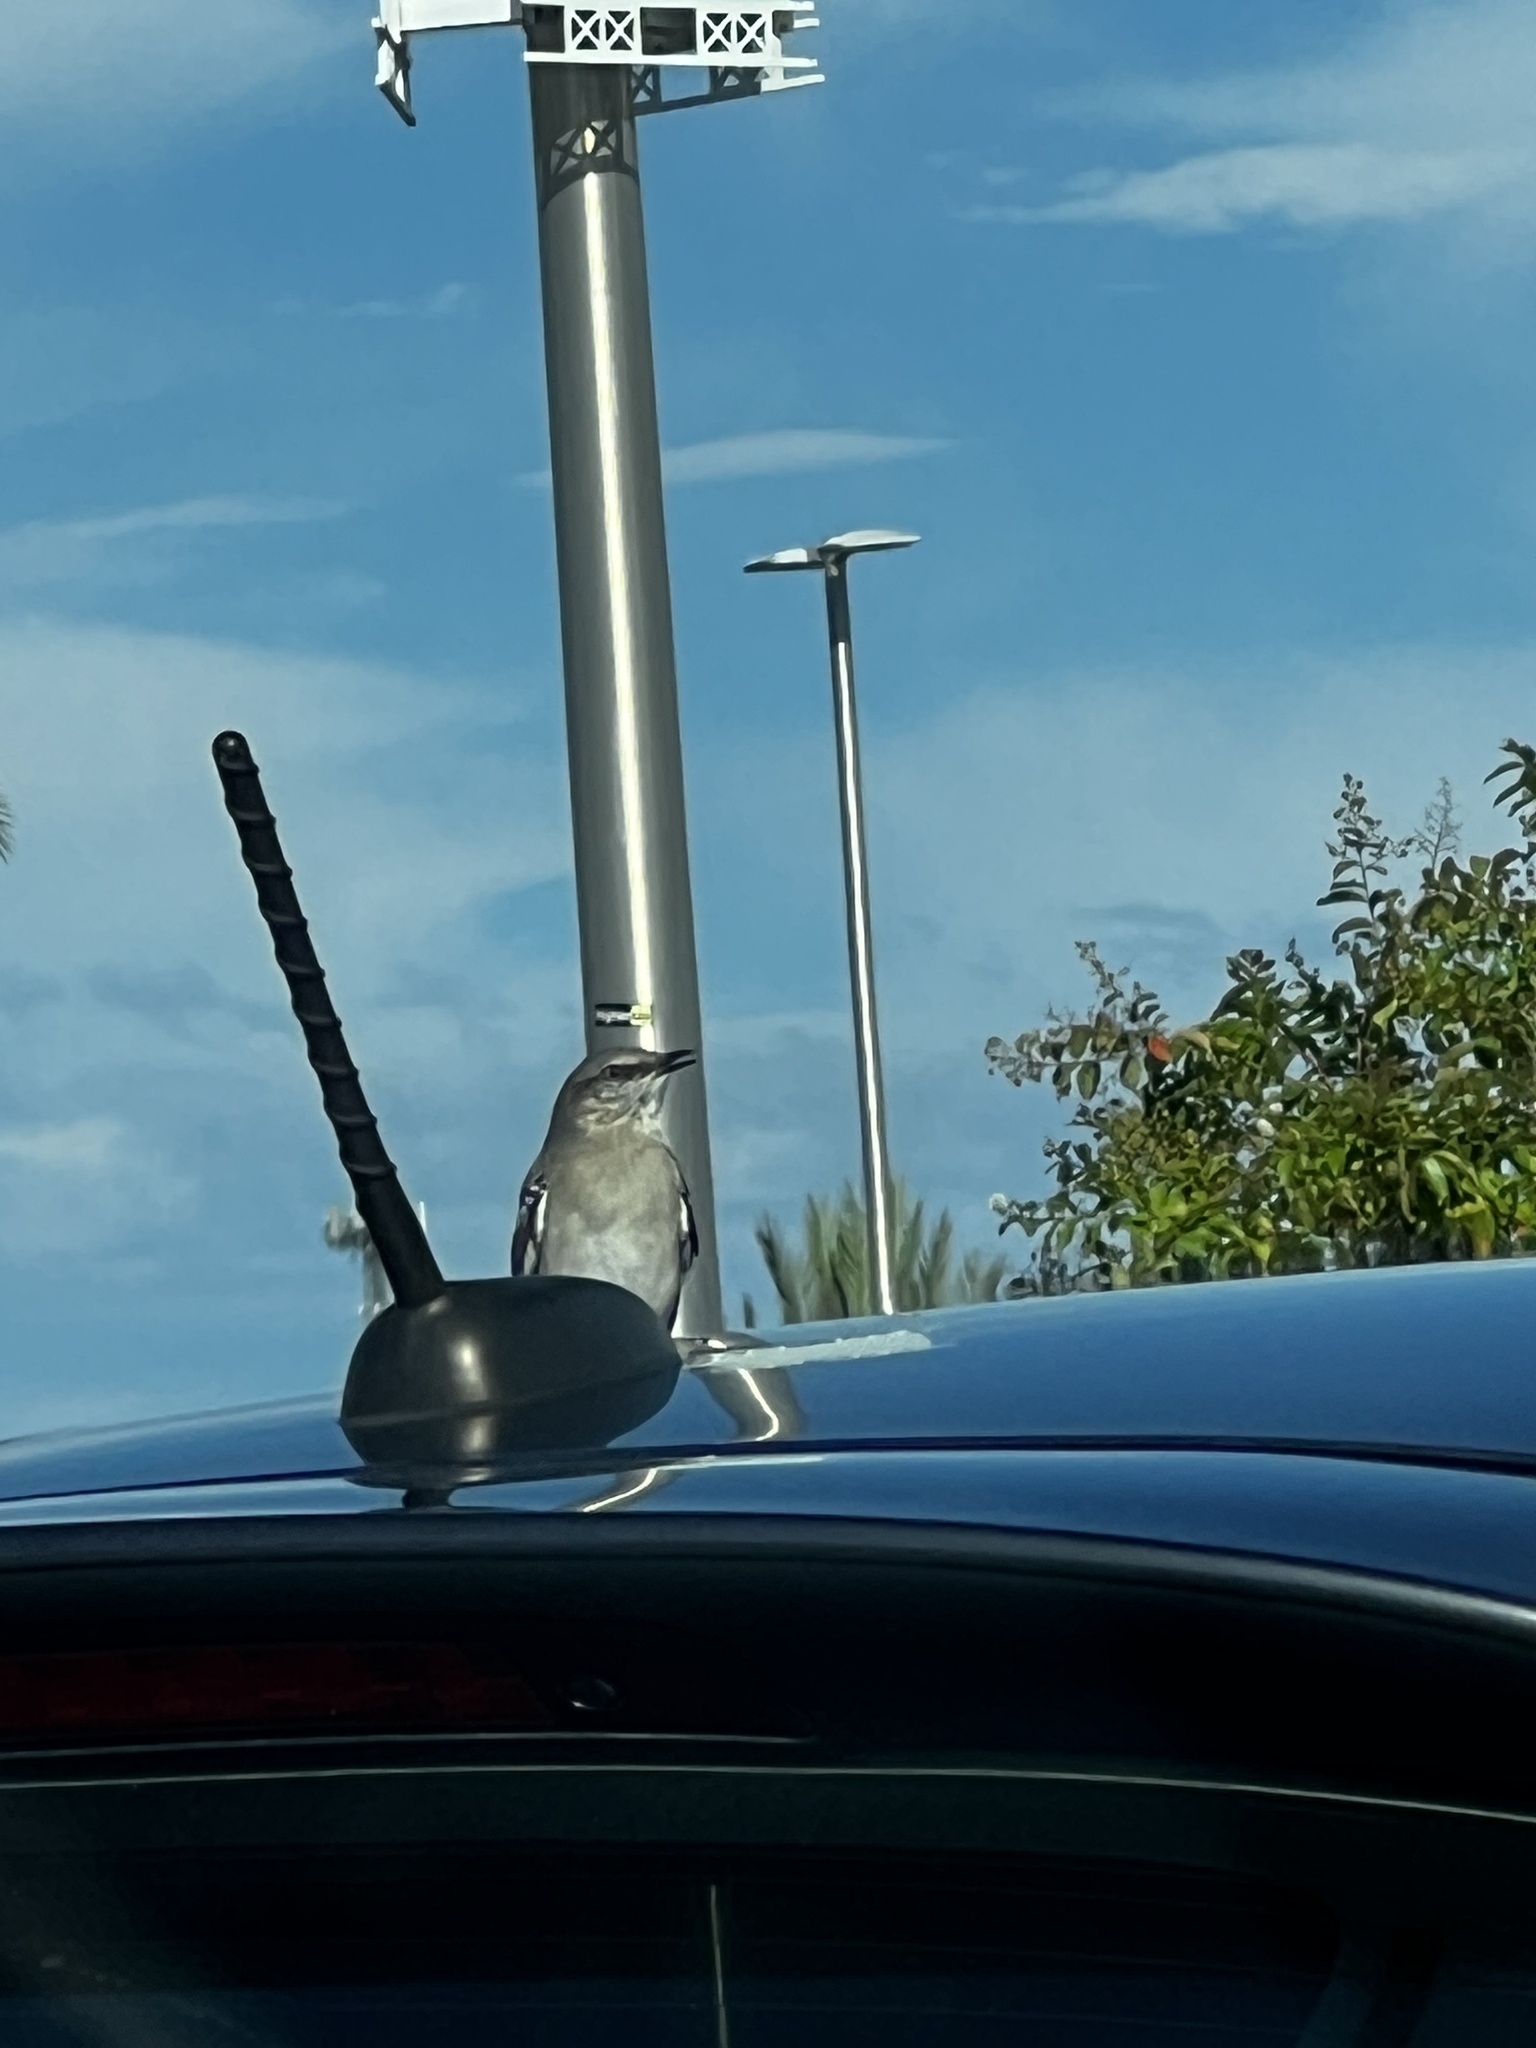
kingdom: Animalia
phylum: Chordata
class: Aves
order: Passeriformes
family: Mimidae
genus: Mimus
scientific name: Mimus polyglottos
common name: Northern mockingbird
